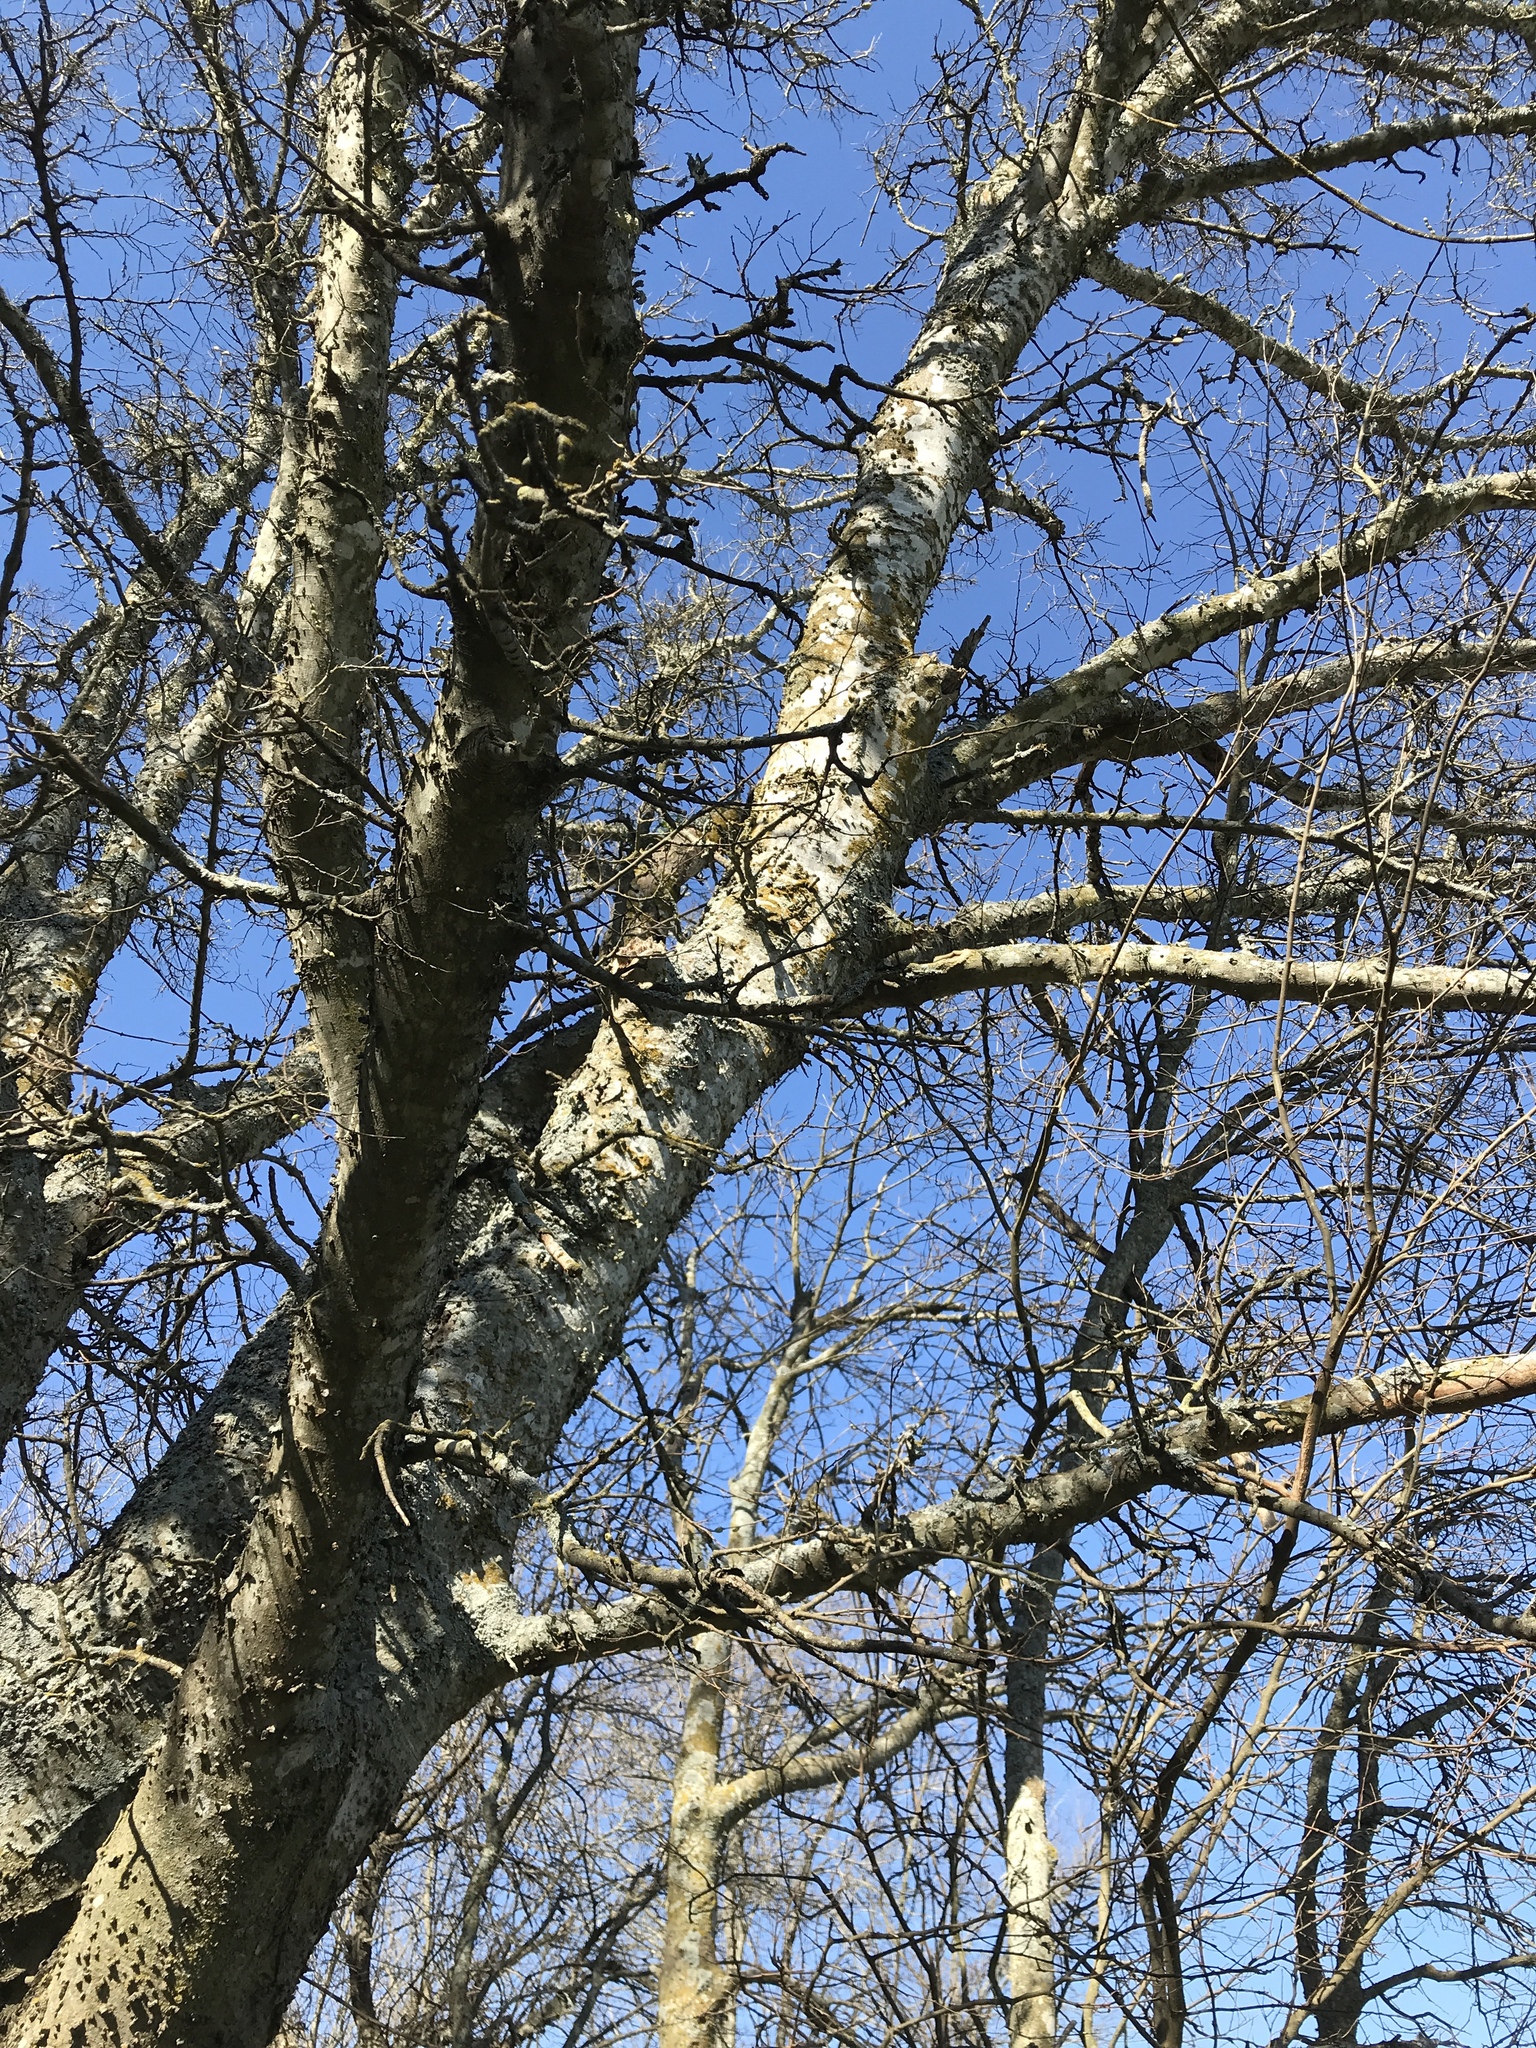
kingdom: Plantae
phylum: Tracheophyta
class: Magnoliopsida
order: Rosales
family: Cannabaceae
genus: Celtis
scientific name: Celtis laevigata
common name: Sugarberry
